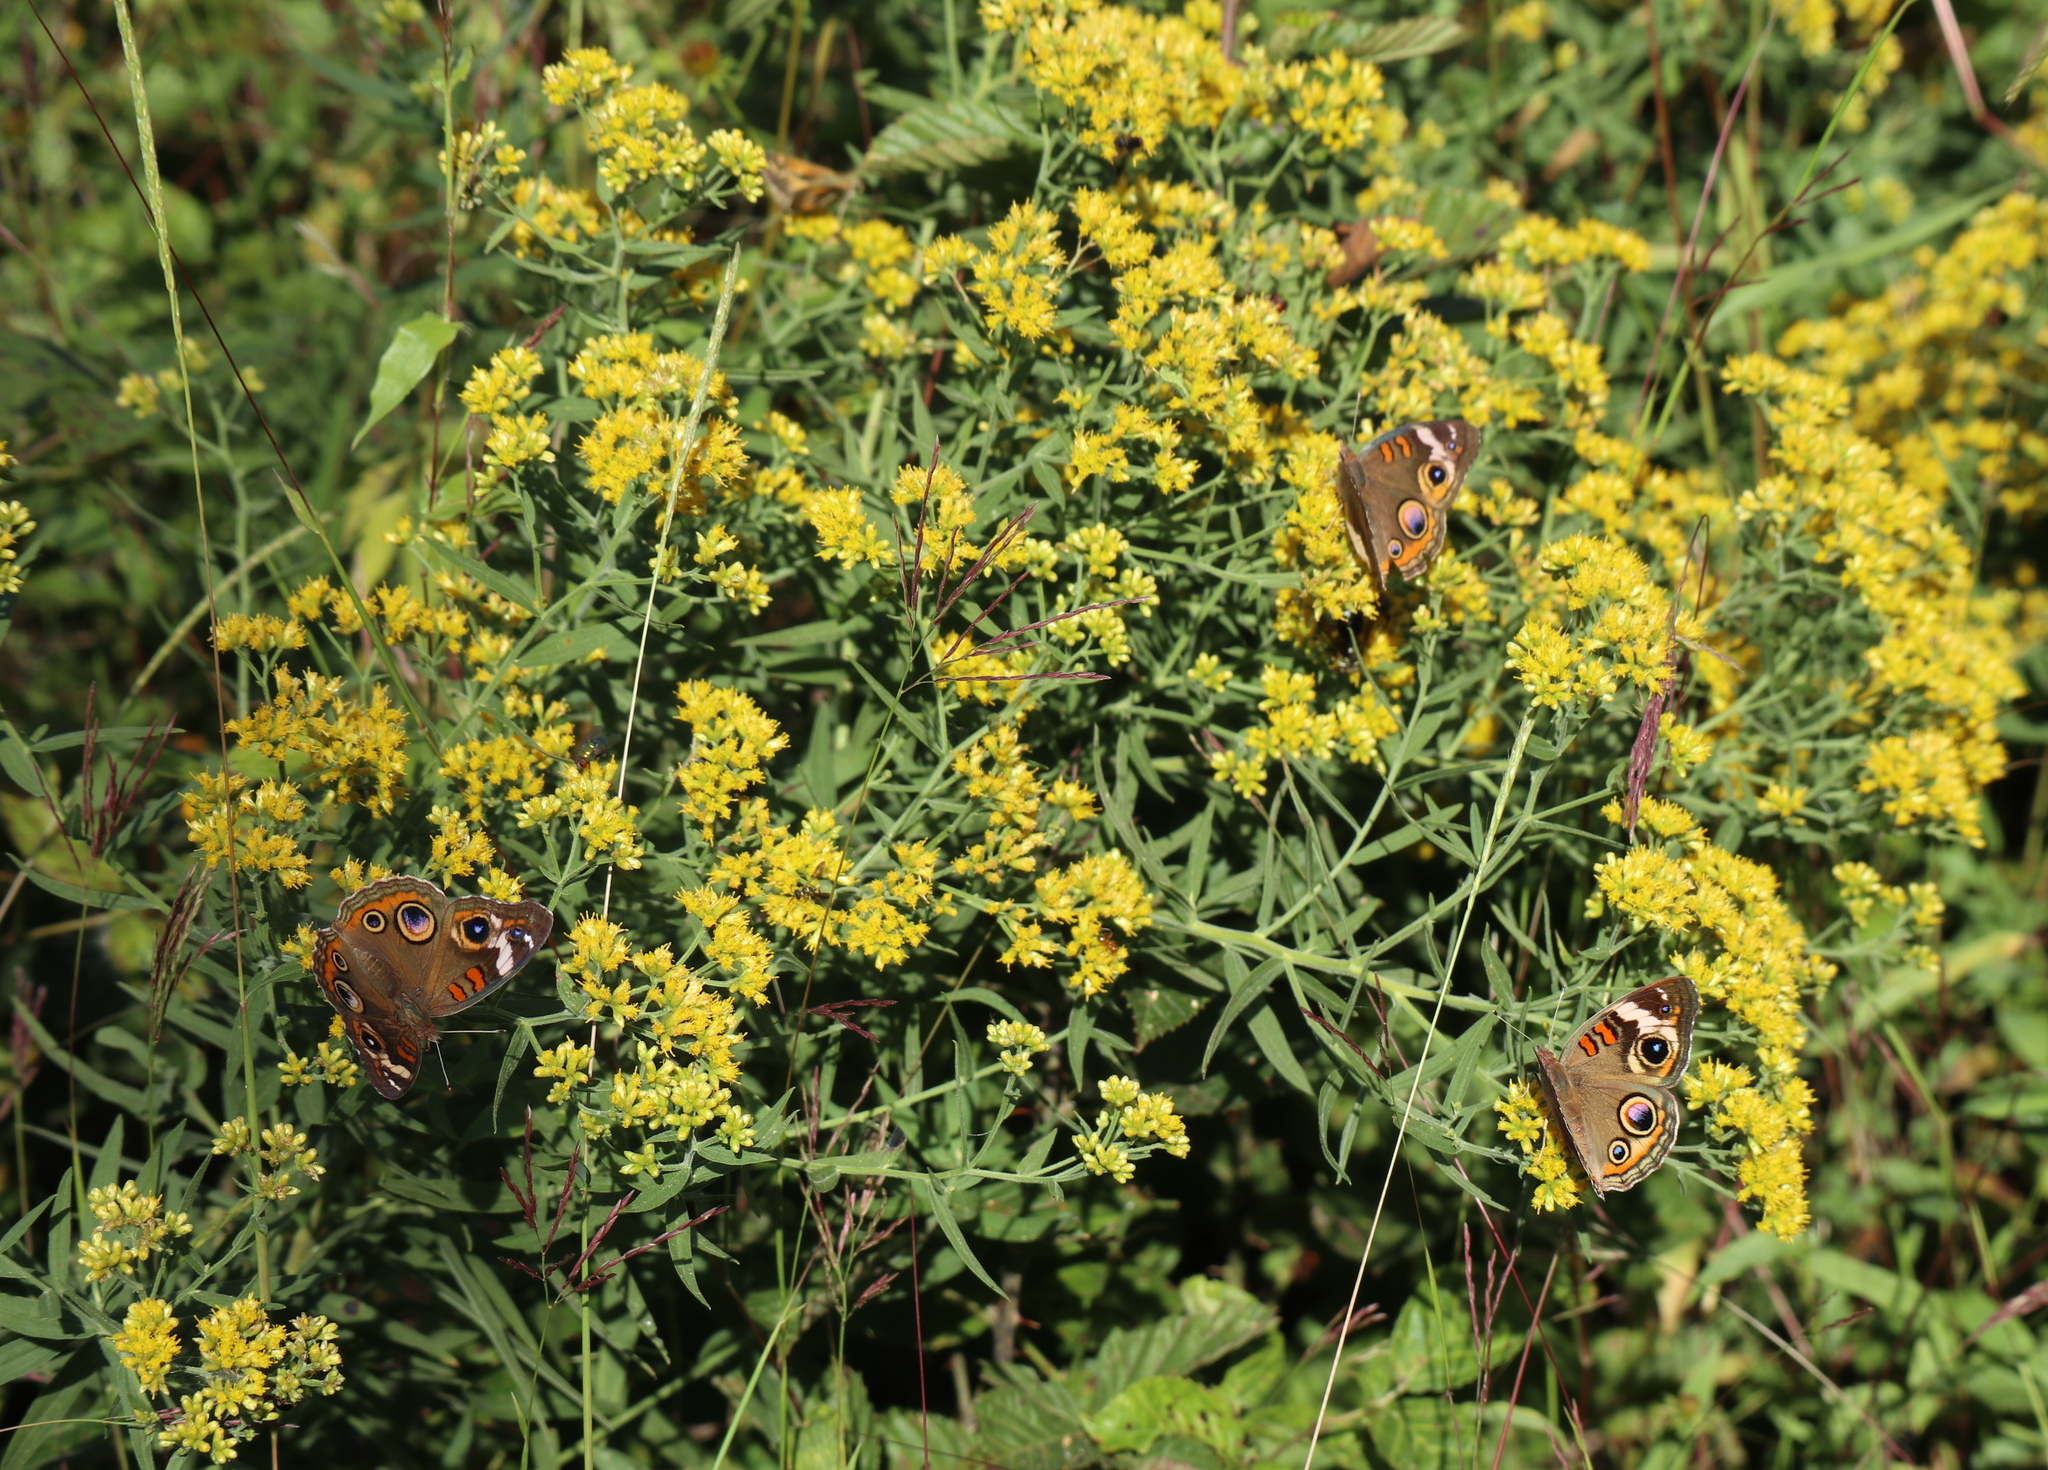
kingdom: Animalia
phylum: Arthropoda
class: Insecta
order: Lepidoptera
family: Nymphalidae
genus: Junonia
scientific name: Junonia coenia
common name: Common buckeye
